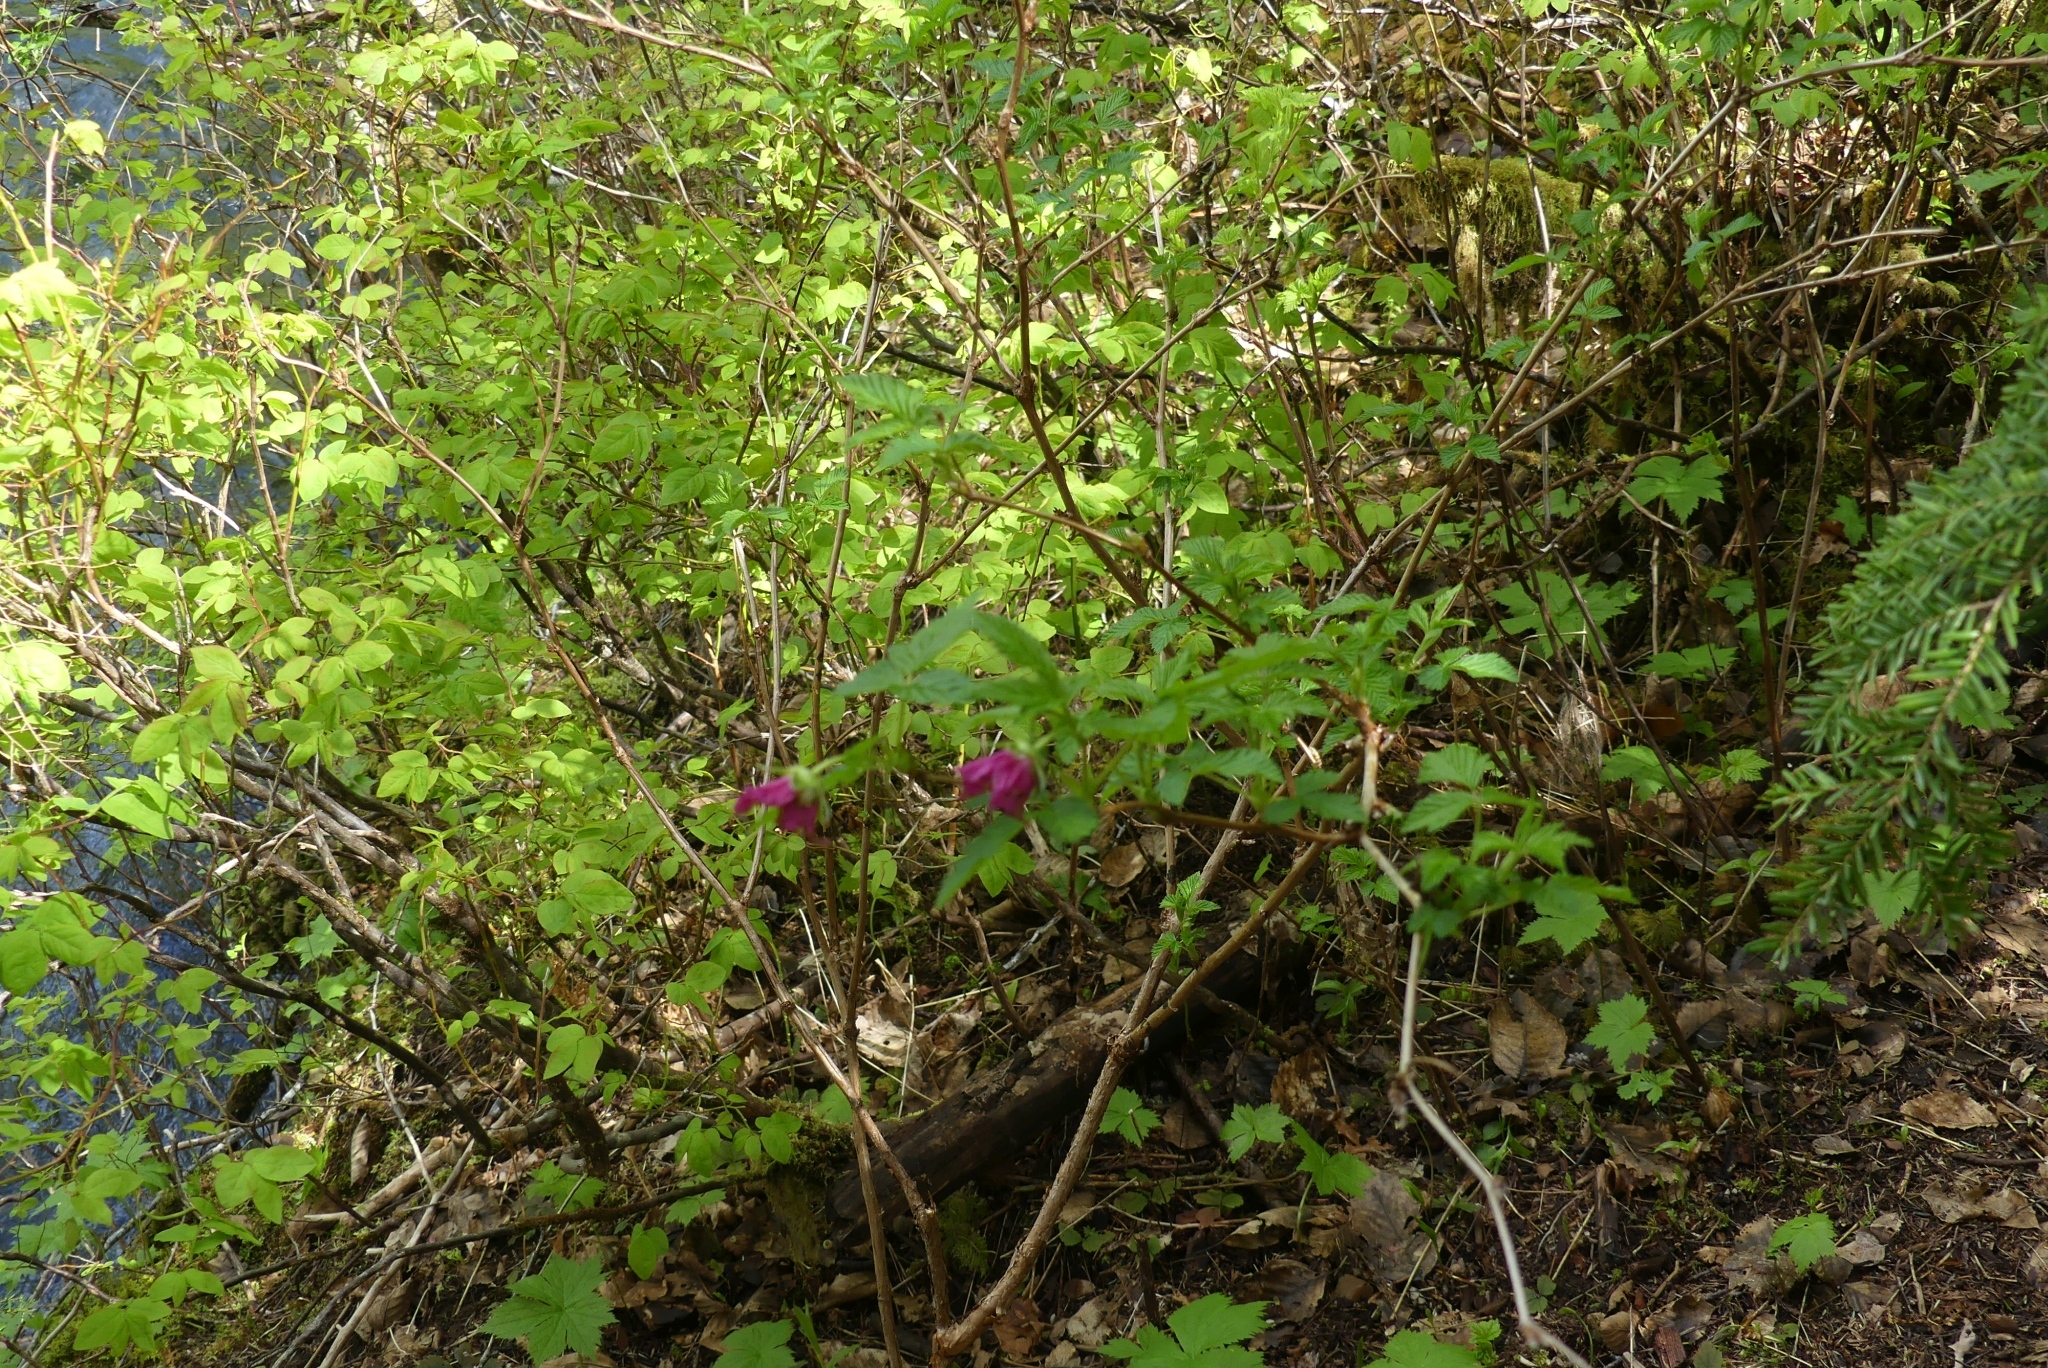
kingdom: Plantae
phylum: Tracheophyta
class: Magnoliopsida
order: Rosales
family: Rosaceae
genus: Rubus
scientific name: Rubus spectabilis
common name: Salmonberry
